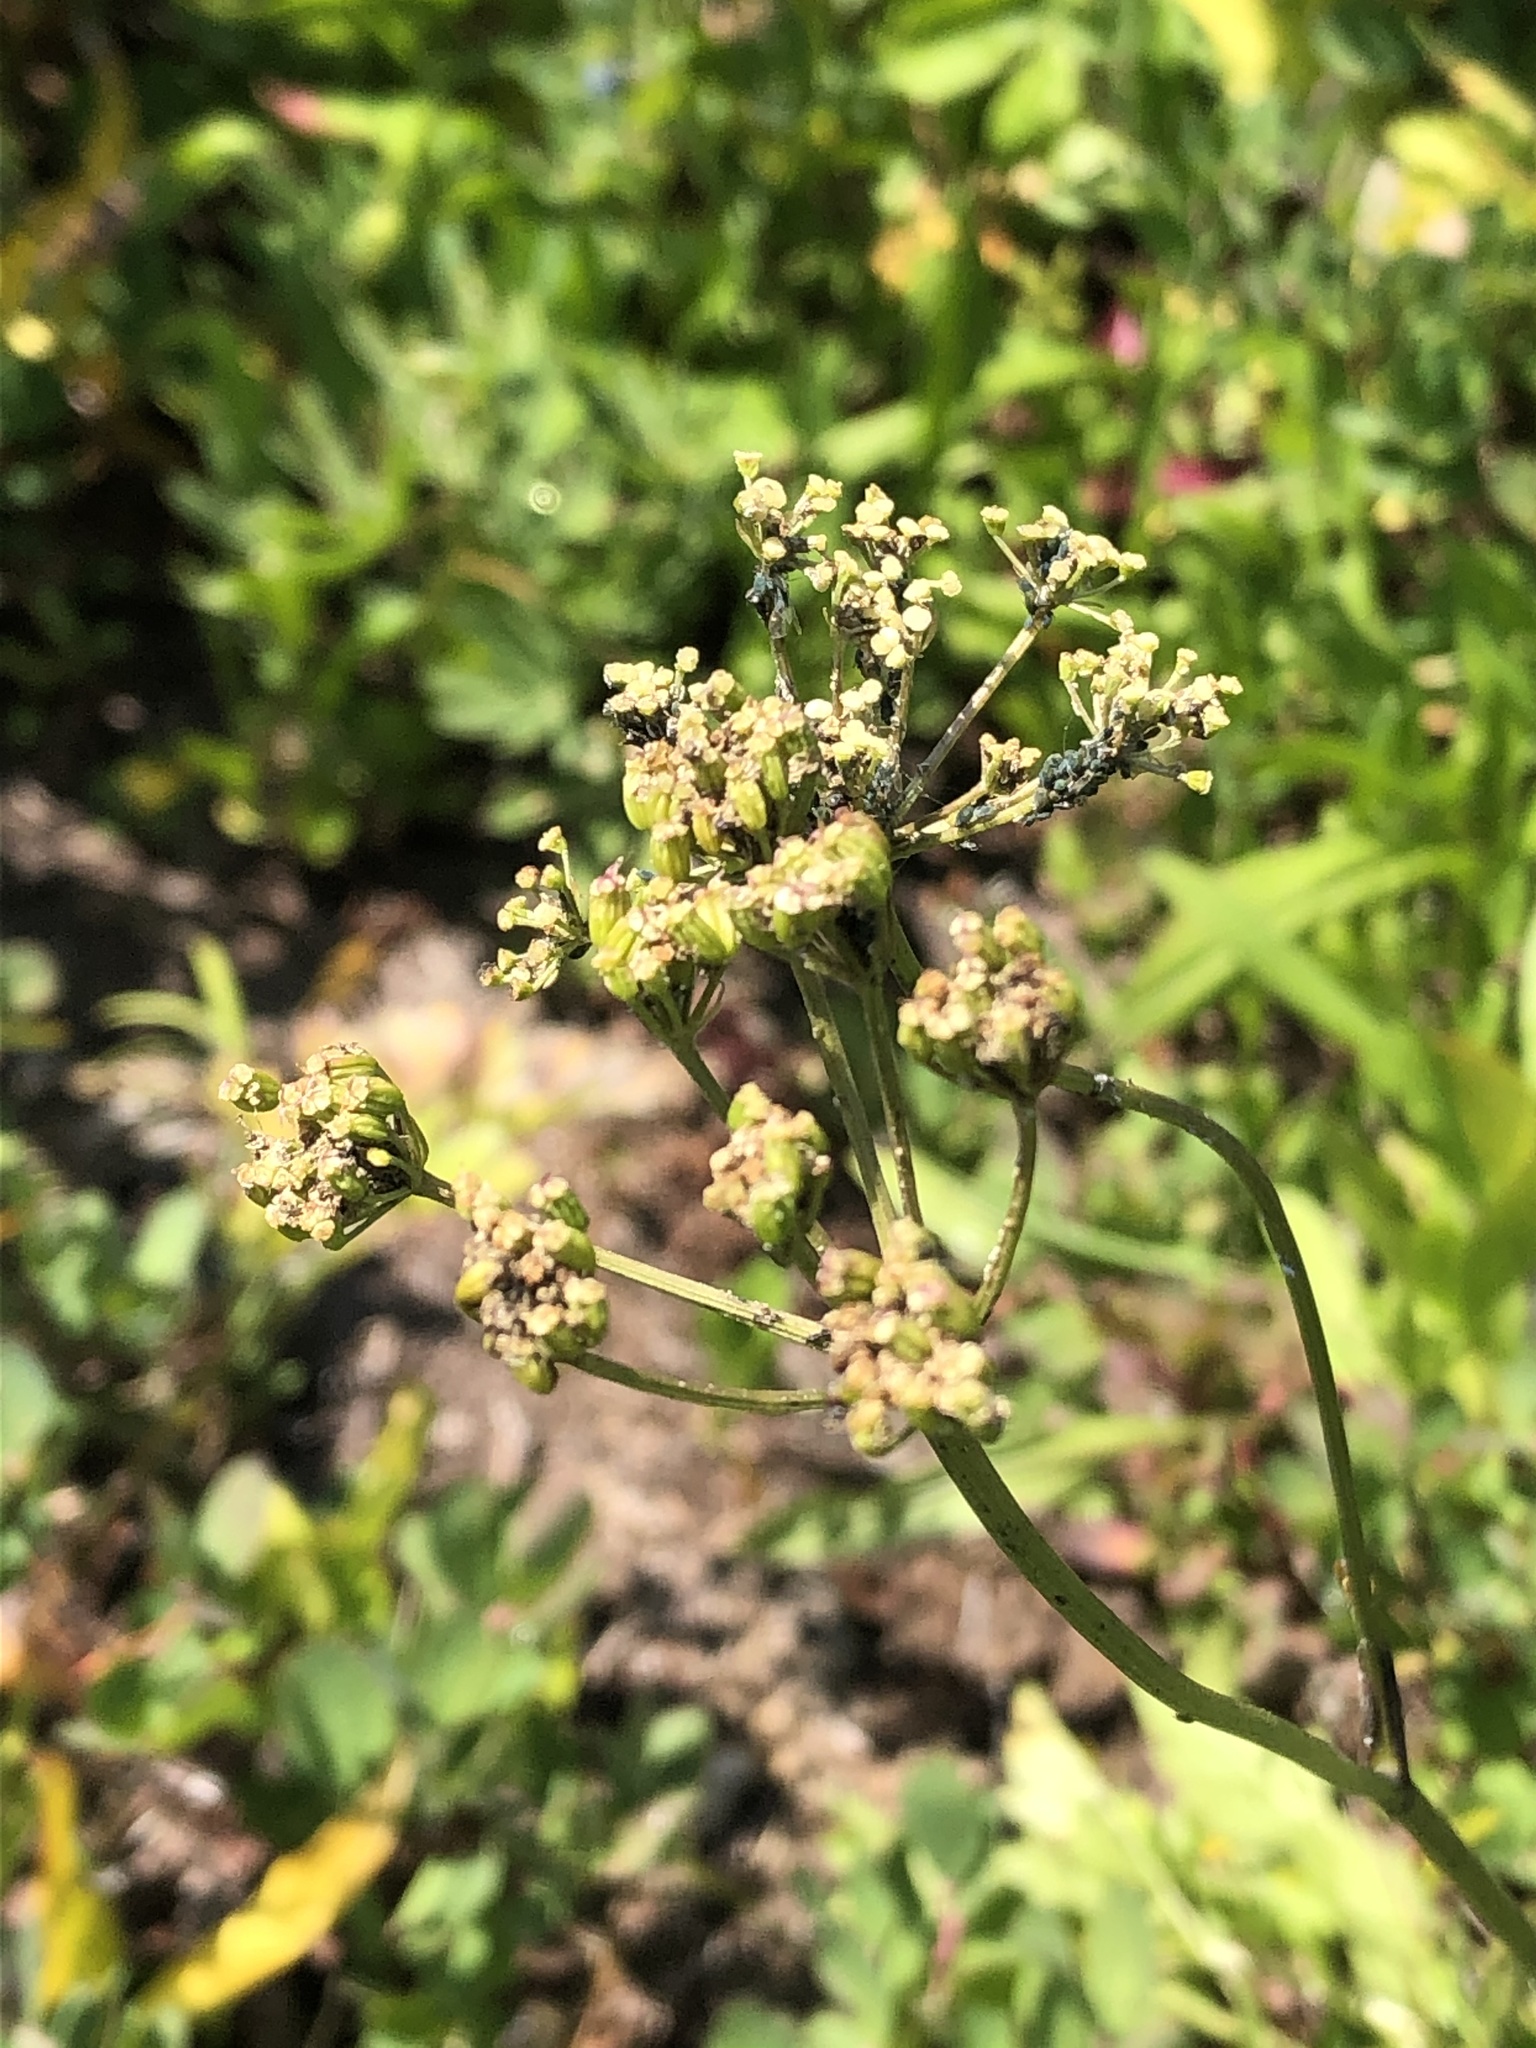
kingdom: Plantae
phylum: Tracheophyta
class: Magnoliopsida
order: Apiales
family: Apiaceae
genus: Ligusticum
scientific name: Ligusticum grayi
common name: Gray's licorice-root
